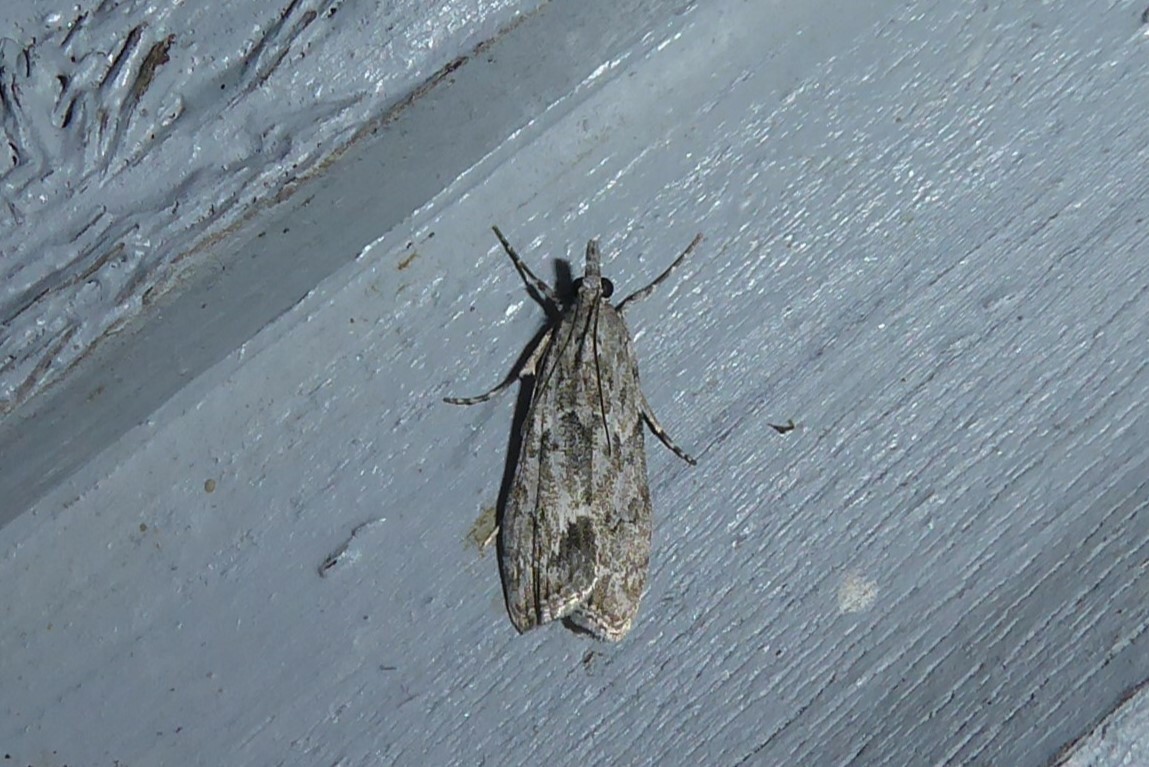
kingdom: Animalia
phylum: Arthropoda
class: Insecta
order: Lepidoptera
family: Crambidae
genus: Eudonia
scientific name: Eudonia rakaiensis
